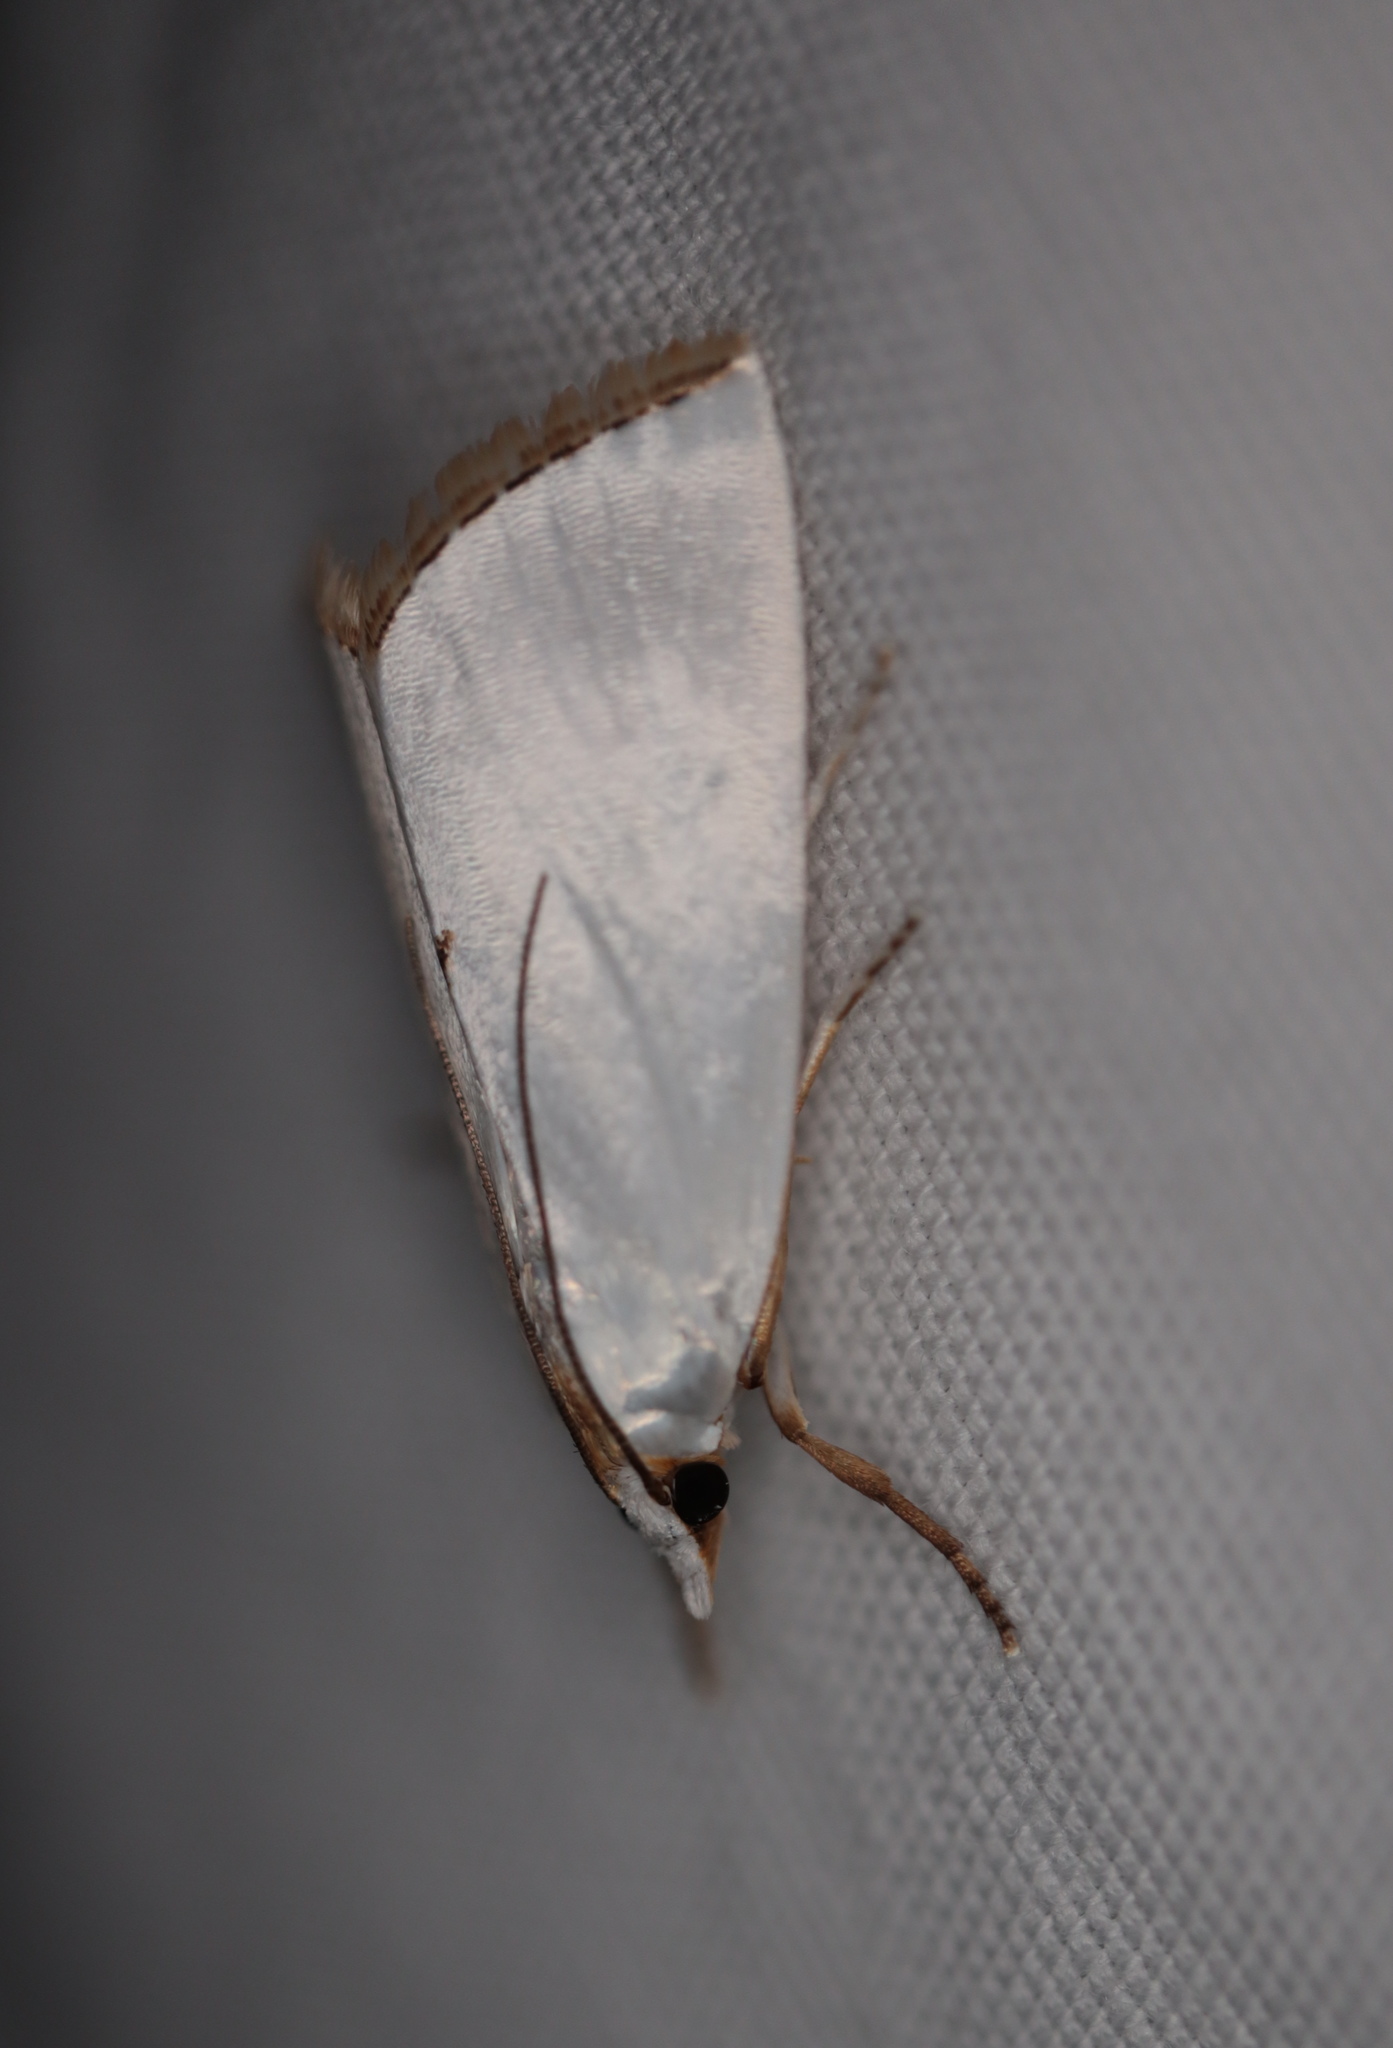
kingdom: Animalia
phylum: Arthropoda
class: Insecta
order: Lepidoptera
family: Crambidae
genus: Argyria
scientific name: Argyria nivalis
